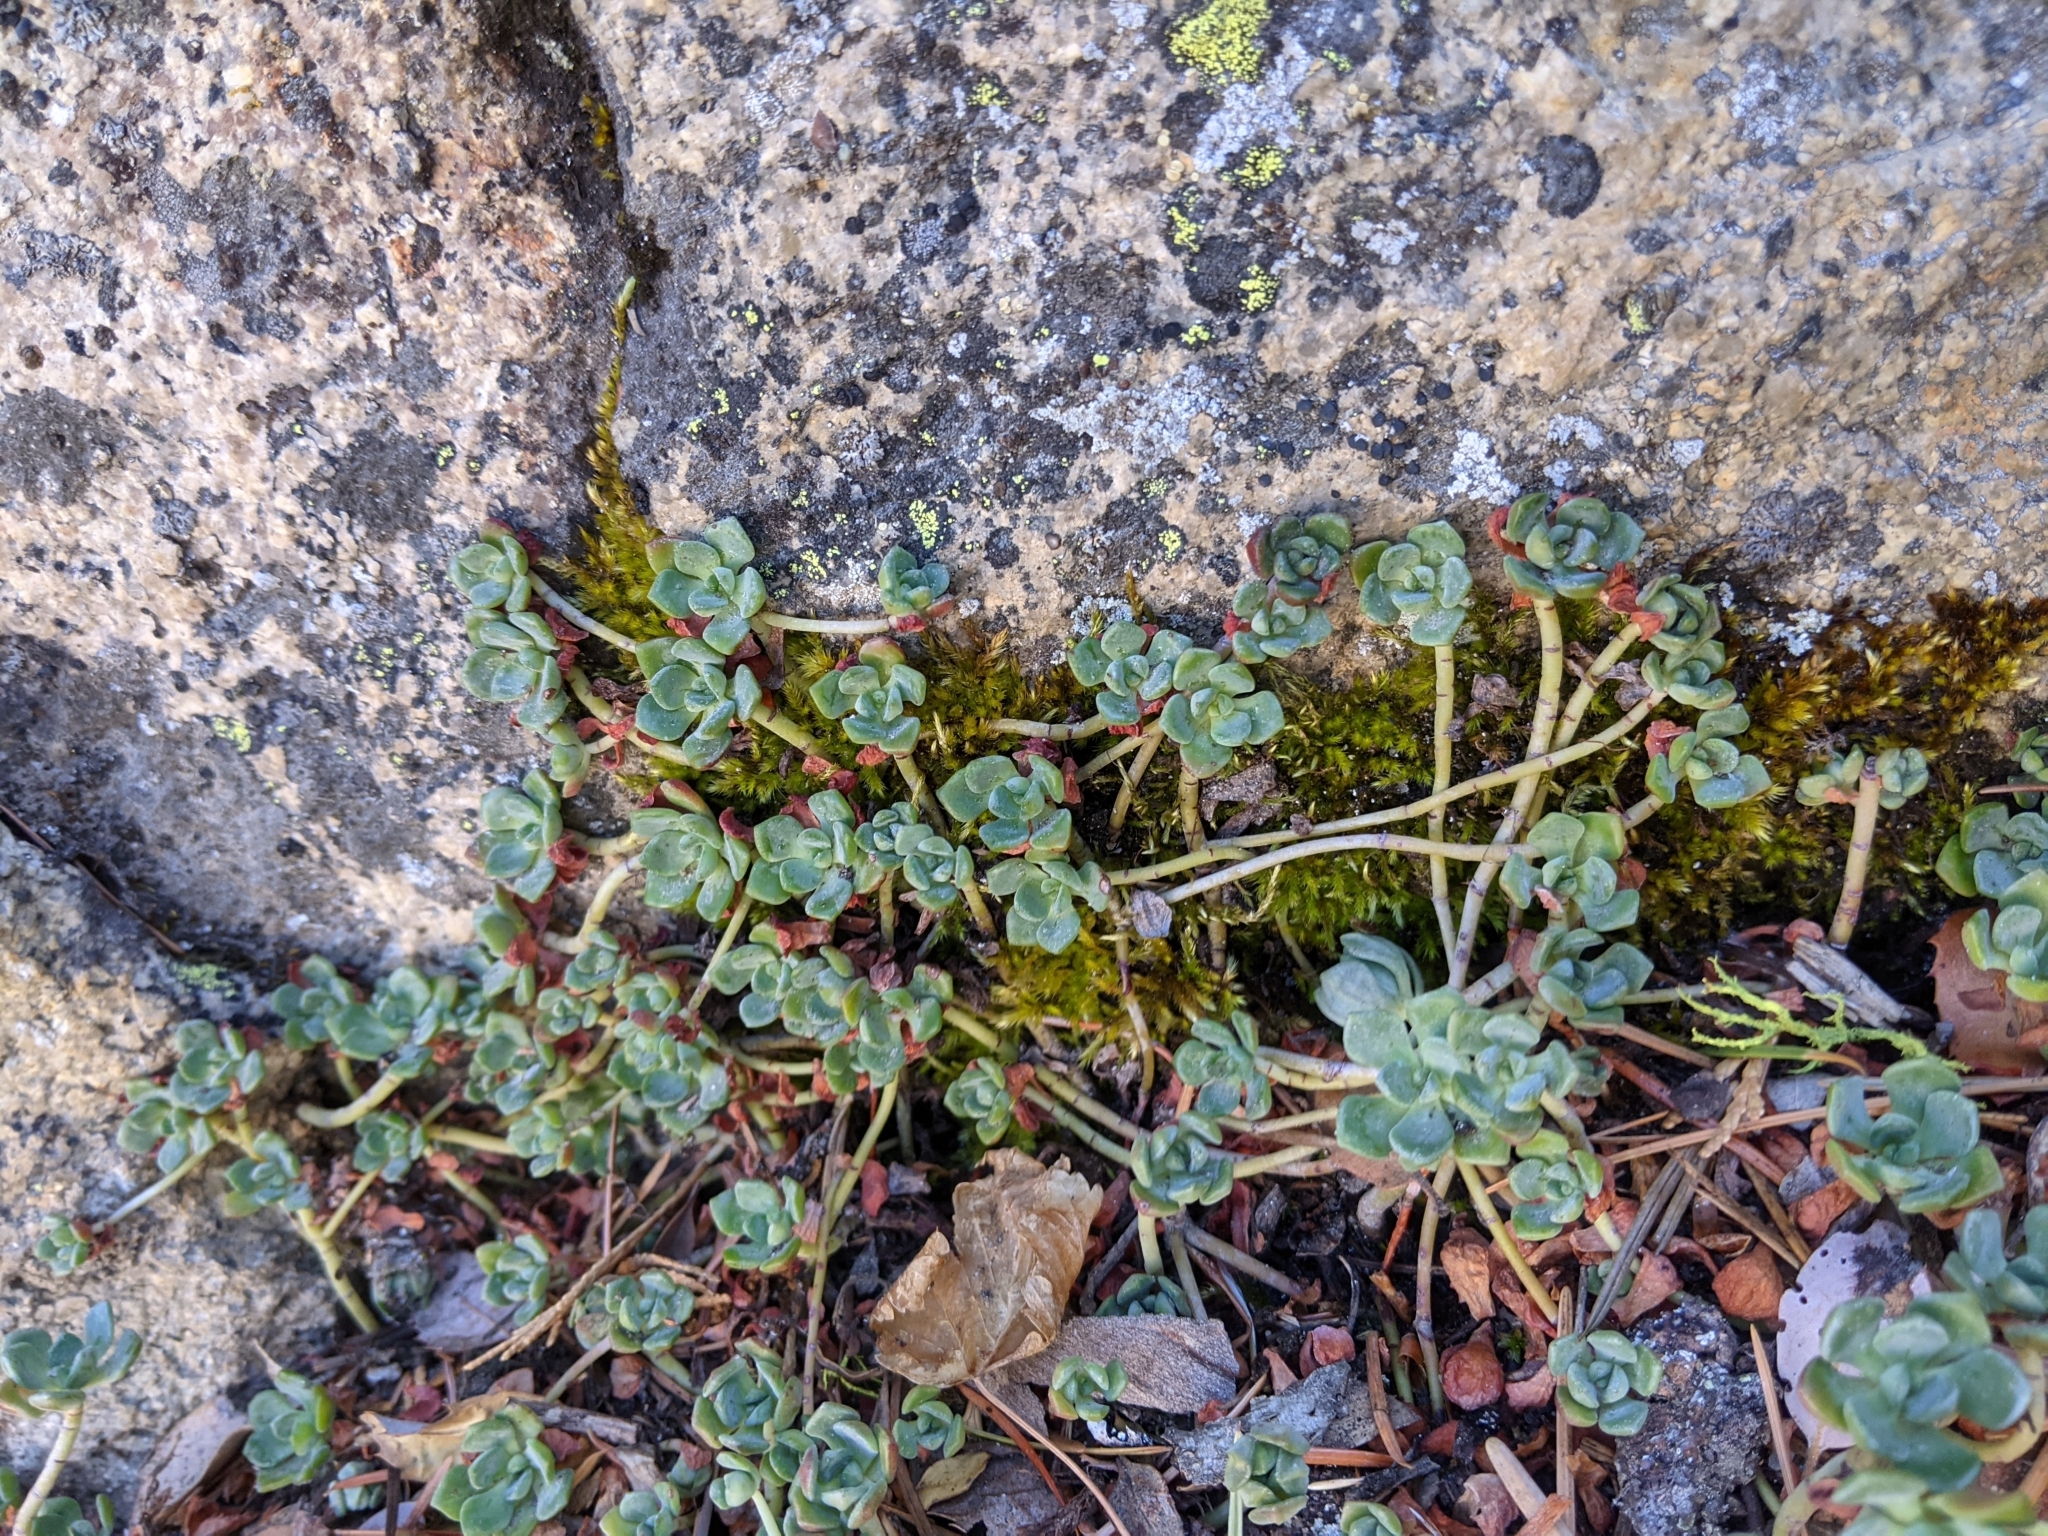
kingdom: Plantae
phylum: Tracheophyta
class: Magnoliopsida
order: Saxifragales
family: Crassulaceae
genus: Sedum
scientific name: Sedum spathulifolium
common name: Colorado stonecrop
